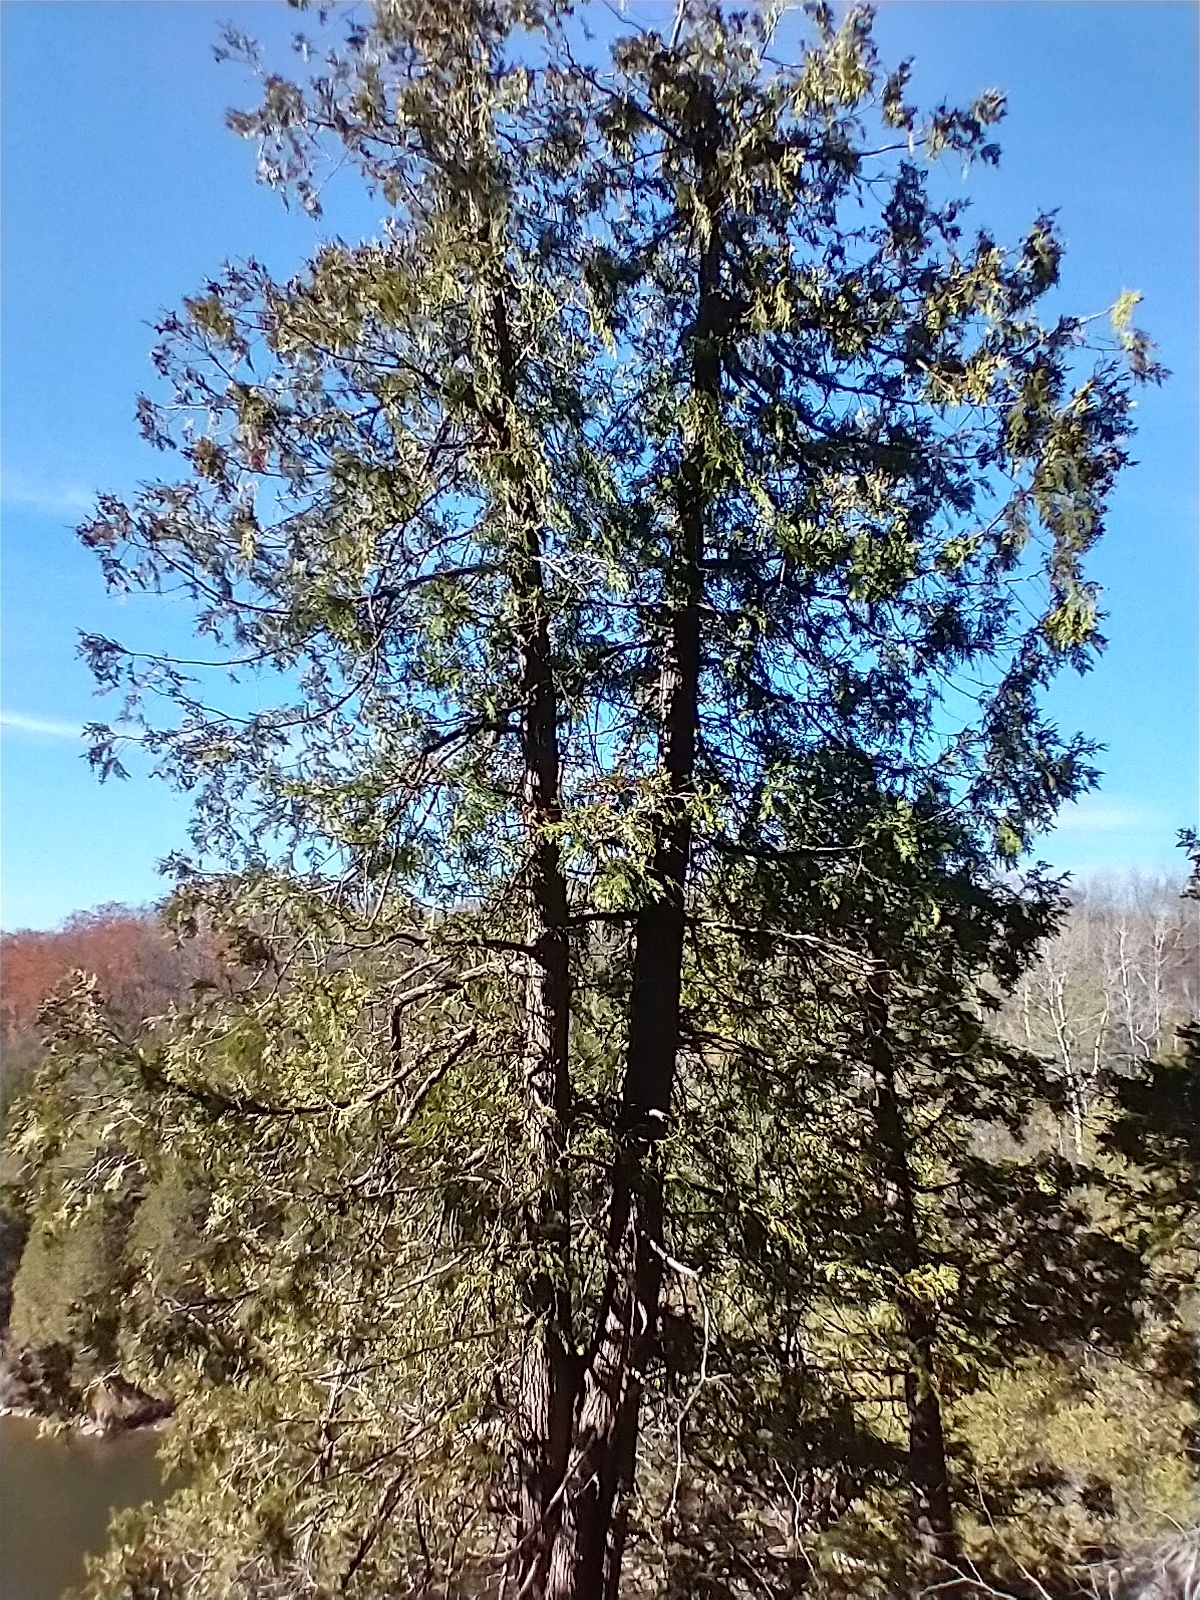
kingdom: Plantae
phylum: Tracheophyta
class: Pinopsida
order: Pinales
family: Cupressaceae
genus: Thuja
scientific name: Thuja occidentalis
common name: Northern white-cedar
